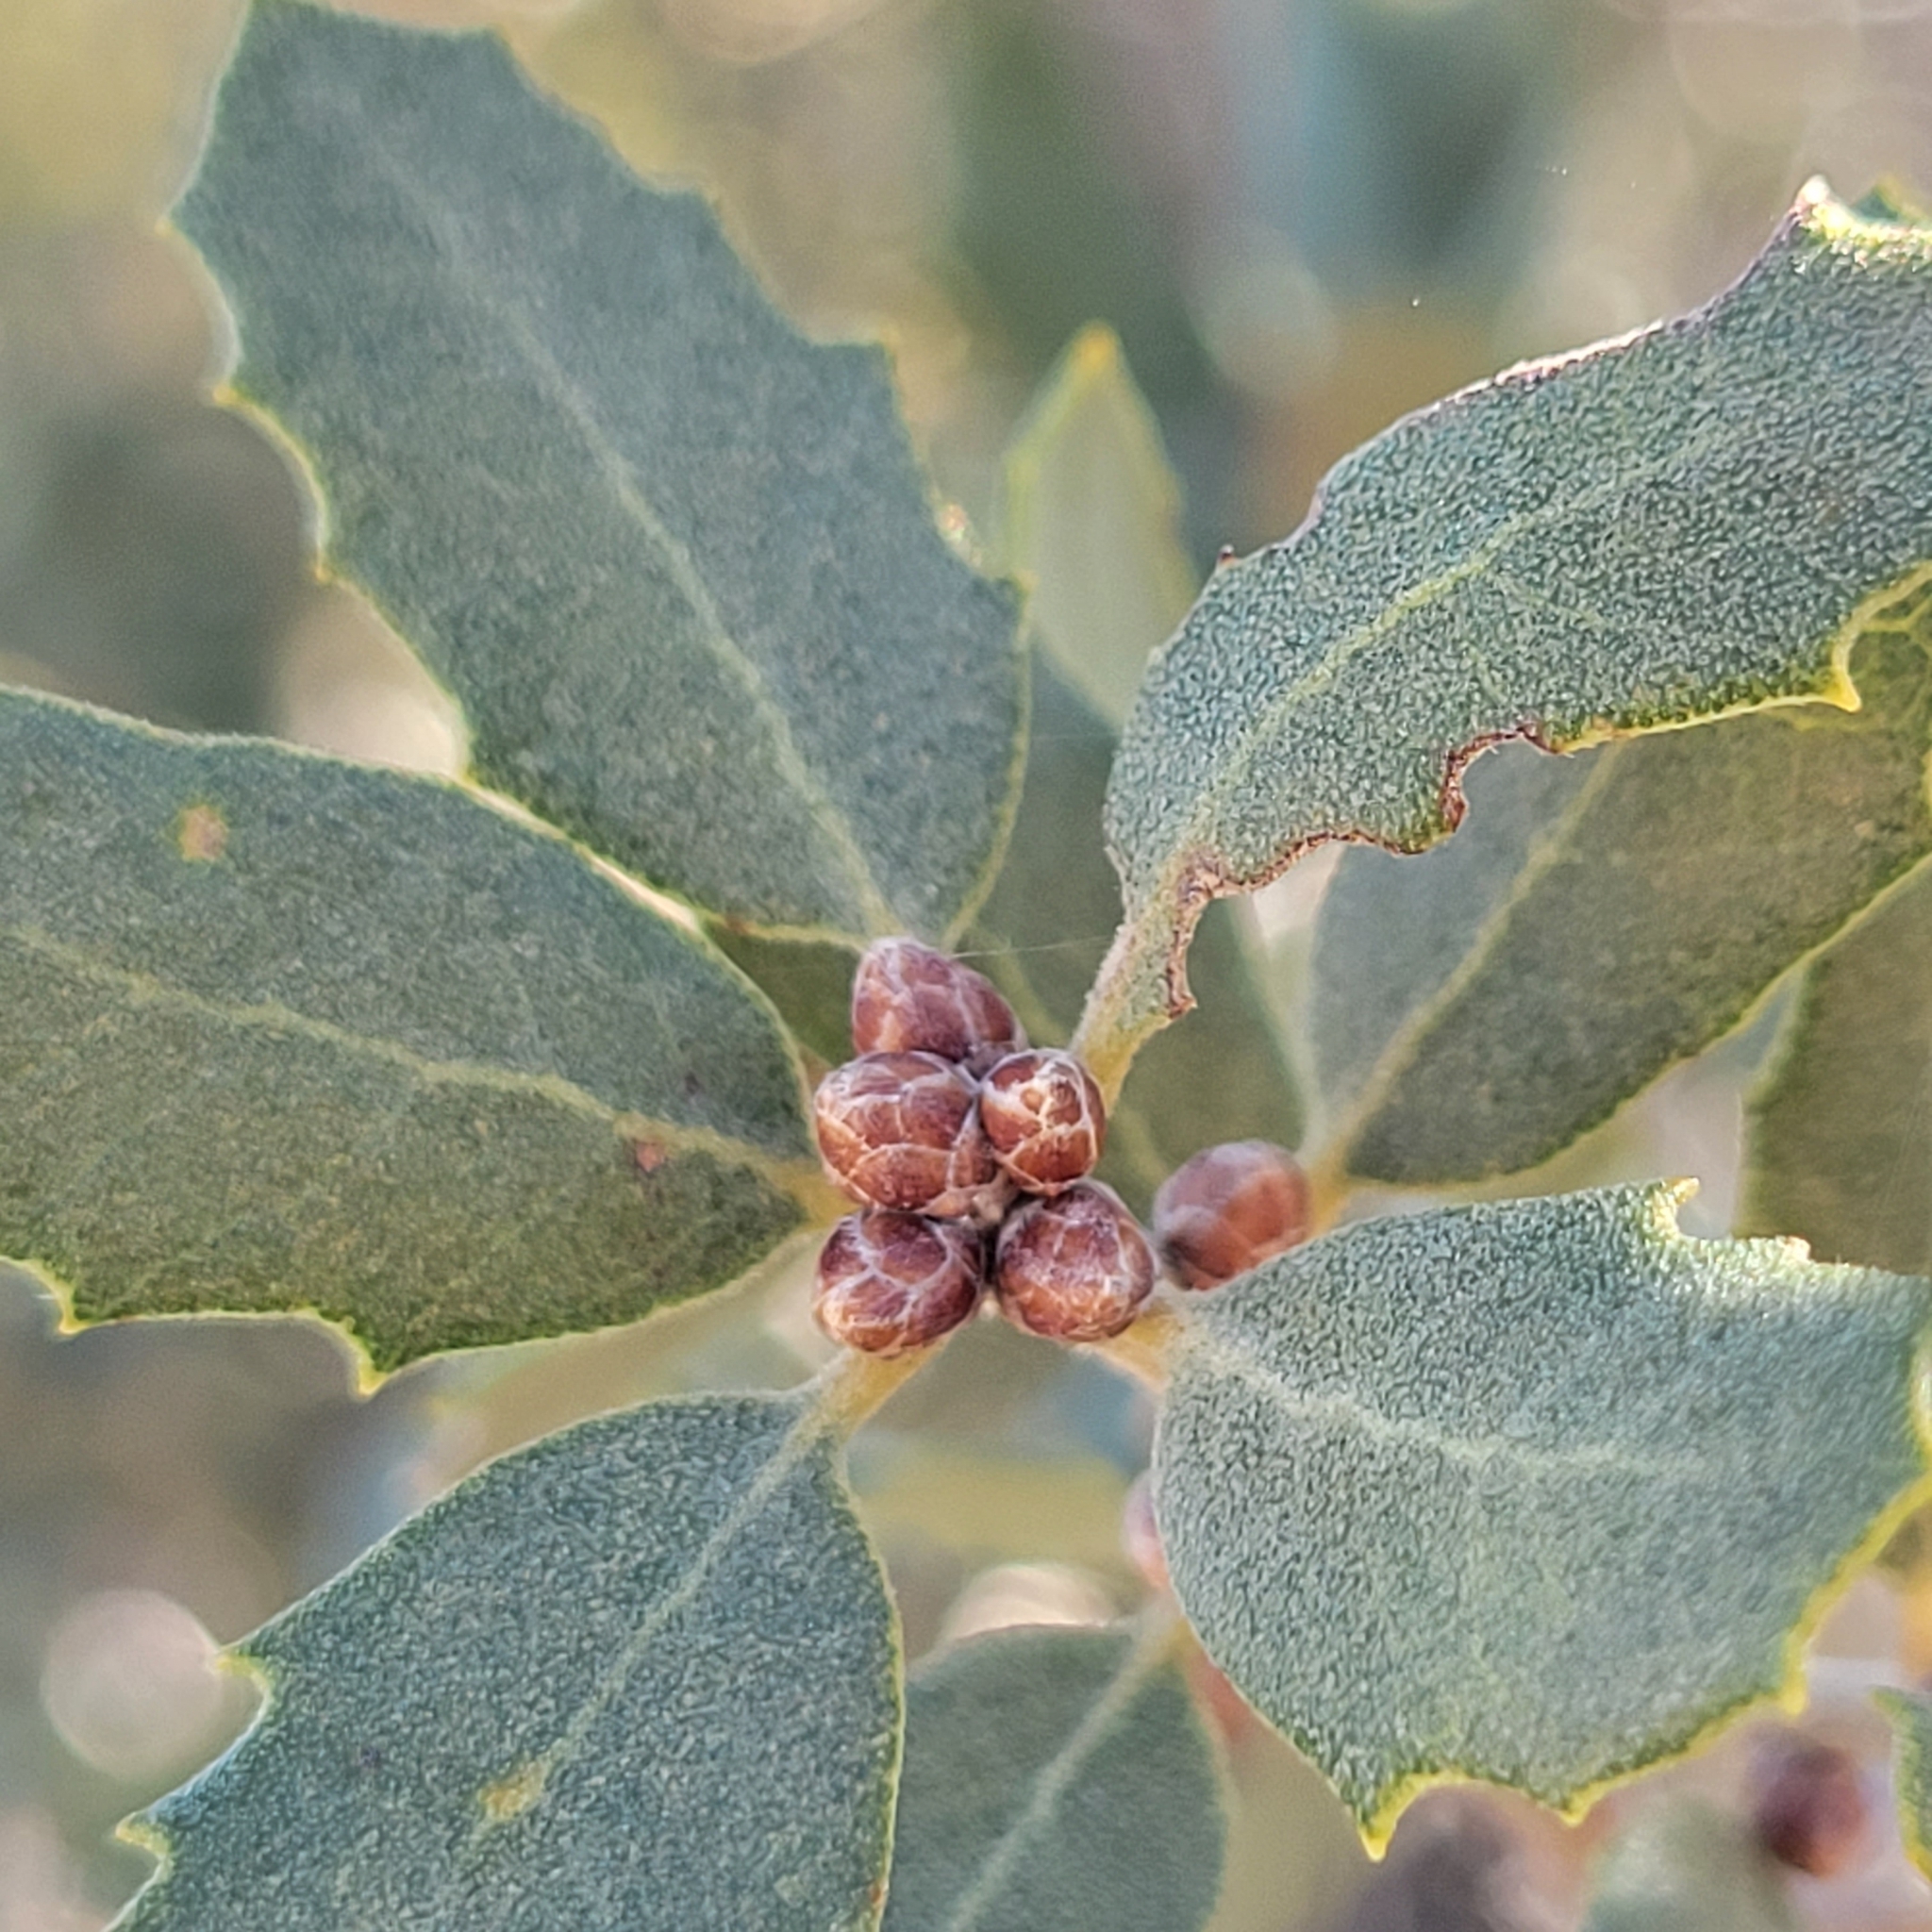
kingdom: Plantae
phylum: Tracheophyta
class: Magnoliopsida
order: Fagales
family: Fagaceae
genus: Quercus
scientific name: Quercus cornelius-mulleri
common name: Muller oak
